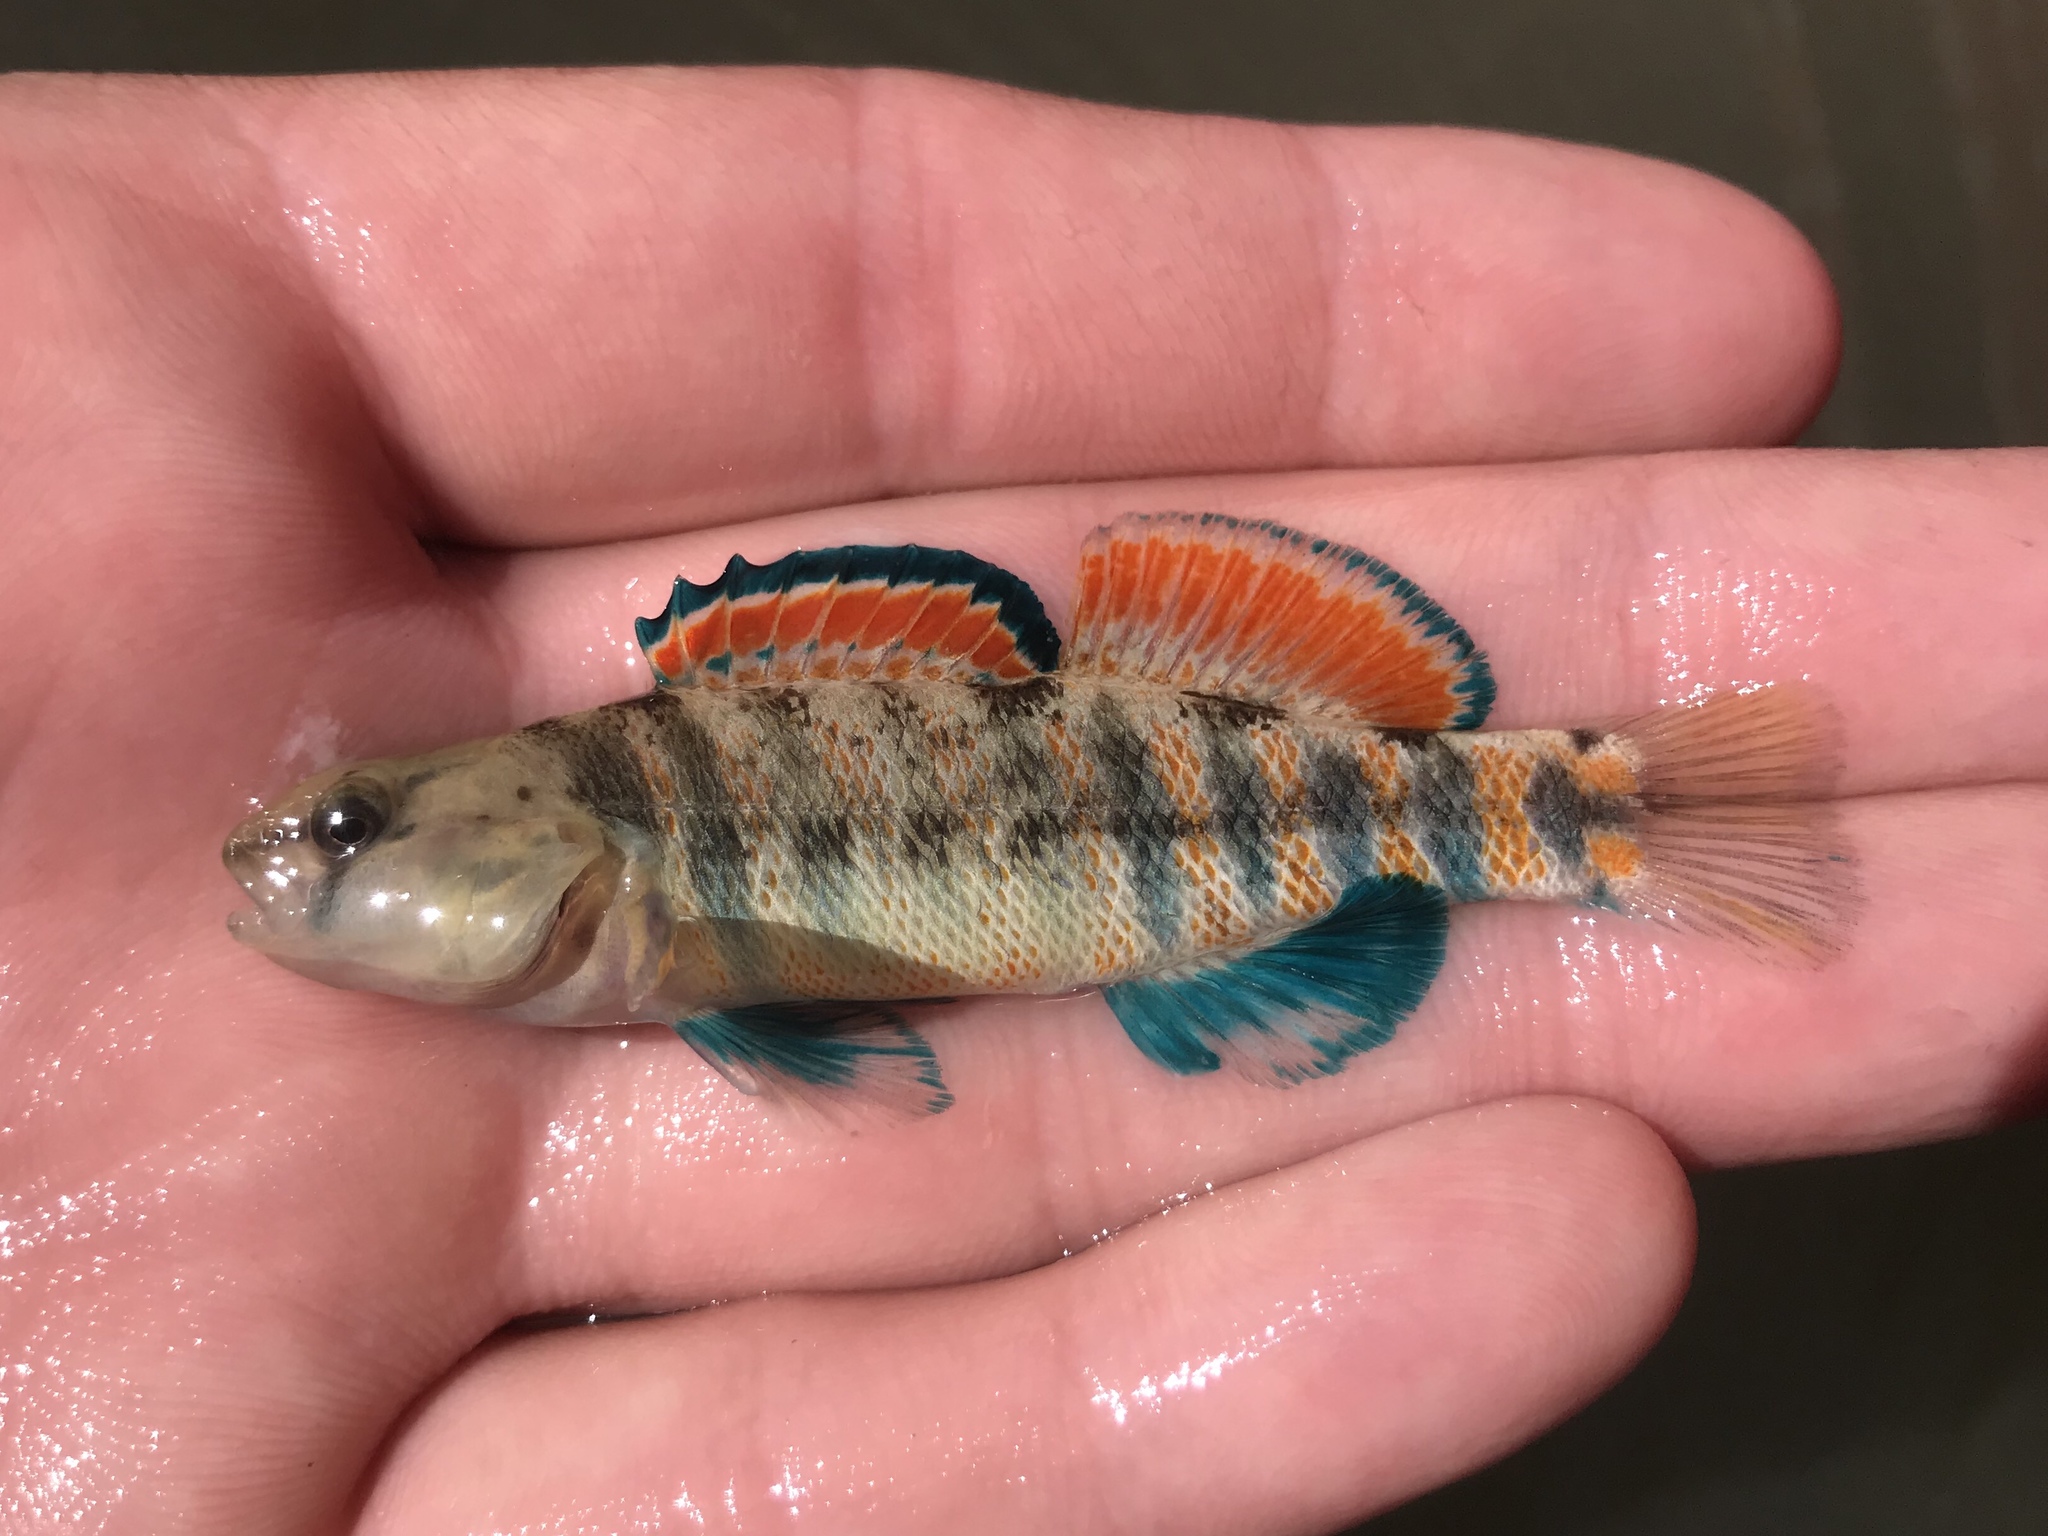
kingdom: Animalia
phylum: Chordata
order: Perciformes
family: Percidae
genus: Etheostoma
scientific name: Etheostoma pulchellum
